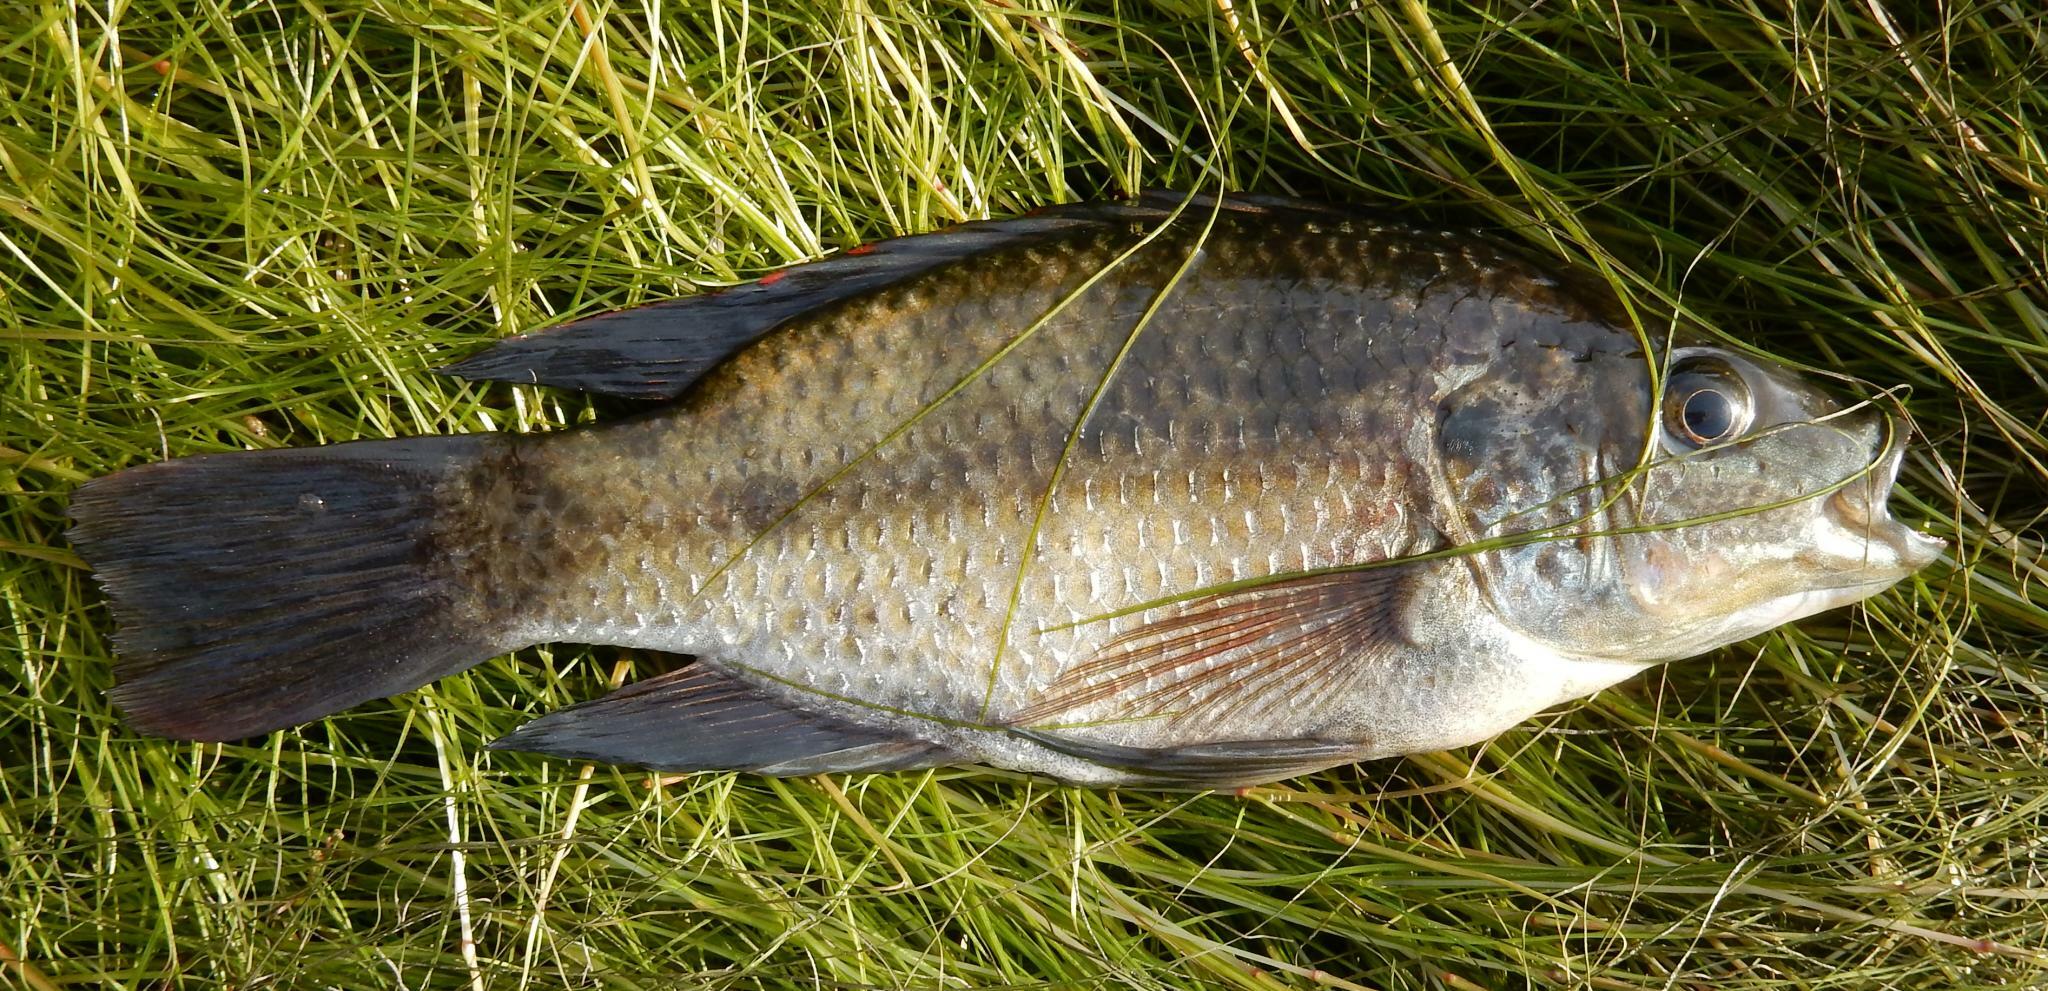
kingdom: Animalia
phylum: Chordata
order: Perciformes
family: Cichlidae
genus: Oreochromis
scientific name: Oreochromis mossambicus
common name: Mozambique tilapia
